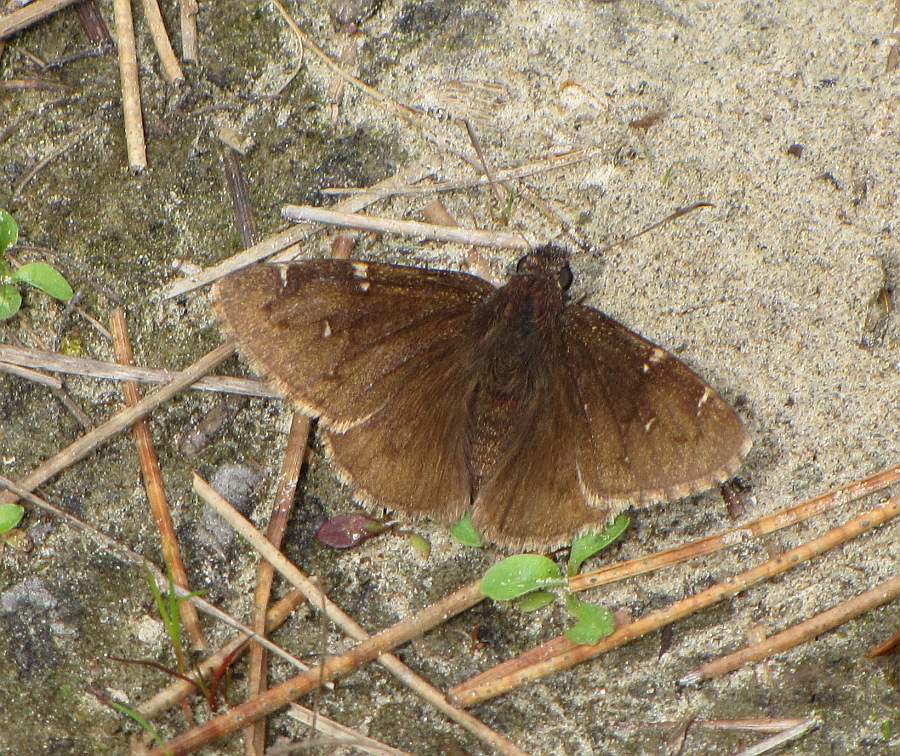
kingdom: Animalia
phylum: Arthropoda
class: Insecta
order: Lepidoptera
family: Hesperiidae
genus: Thorybes
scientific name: Thorybes pylades
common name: Northern cloudywing
